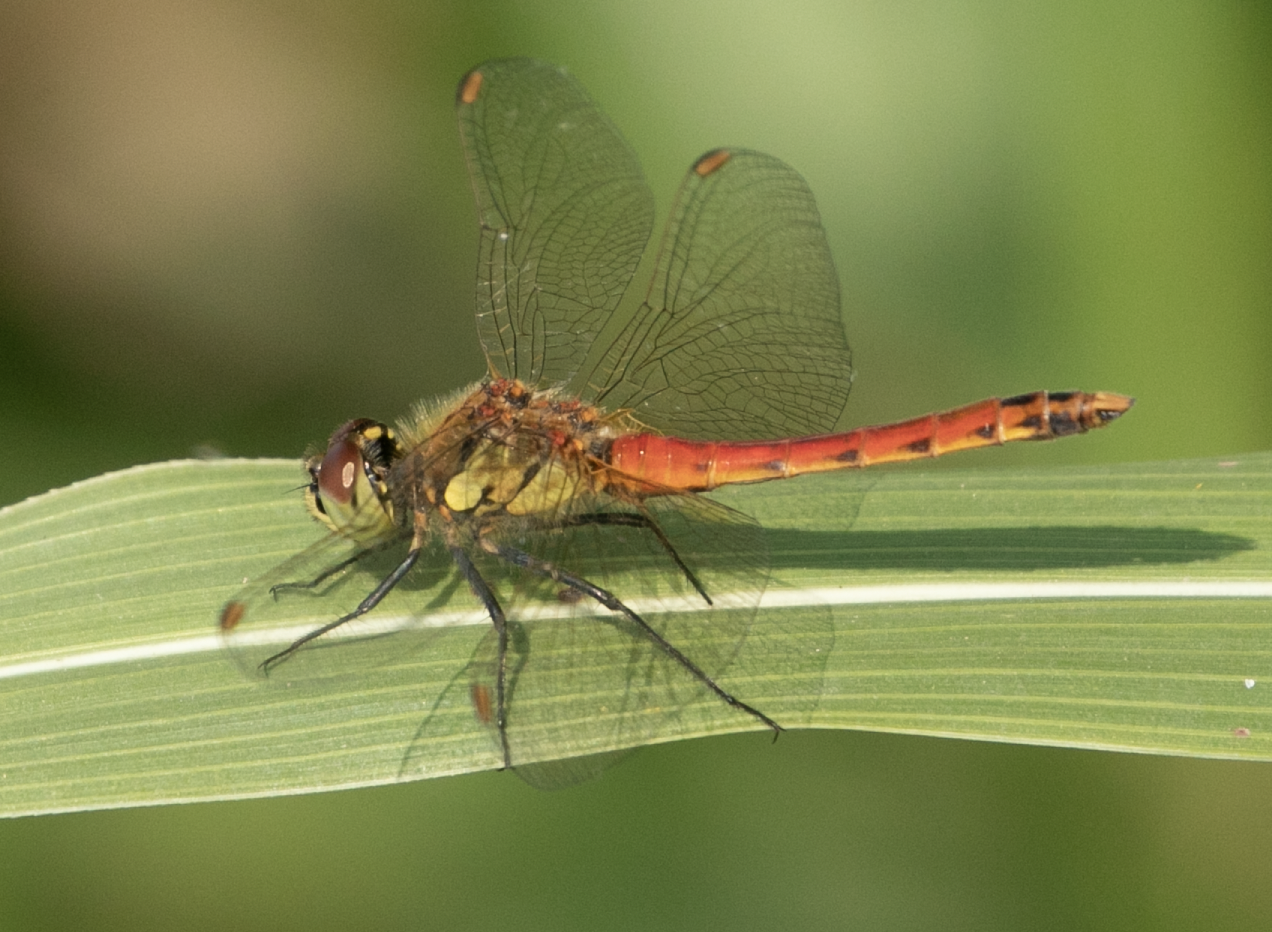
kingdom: Animalia
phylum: Arthropoda
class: Insecta
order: Odonata
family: Libellulidae
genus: Sympetrum
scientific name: Sympetrum depressiusculum
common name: Spotted darter
